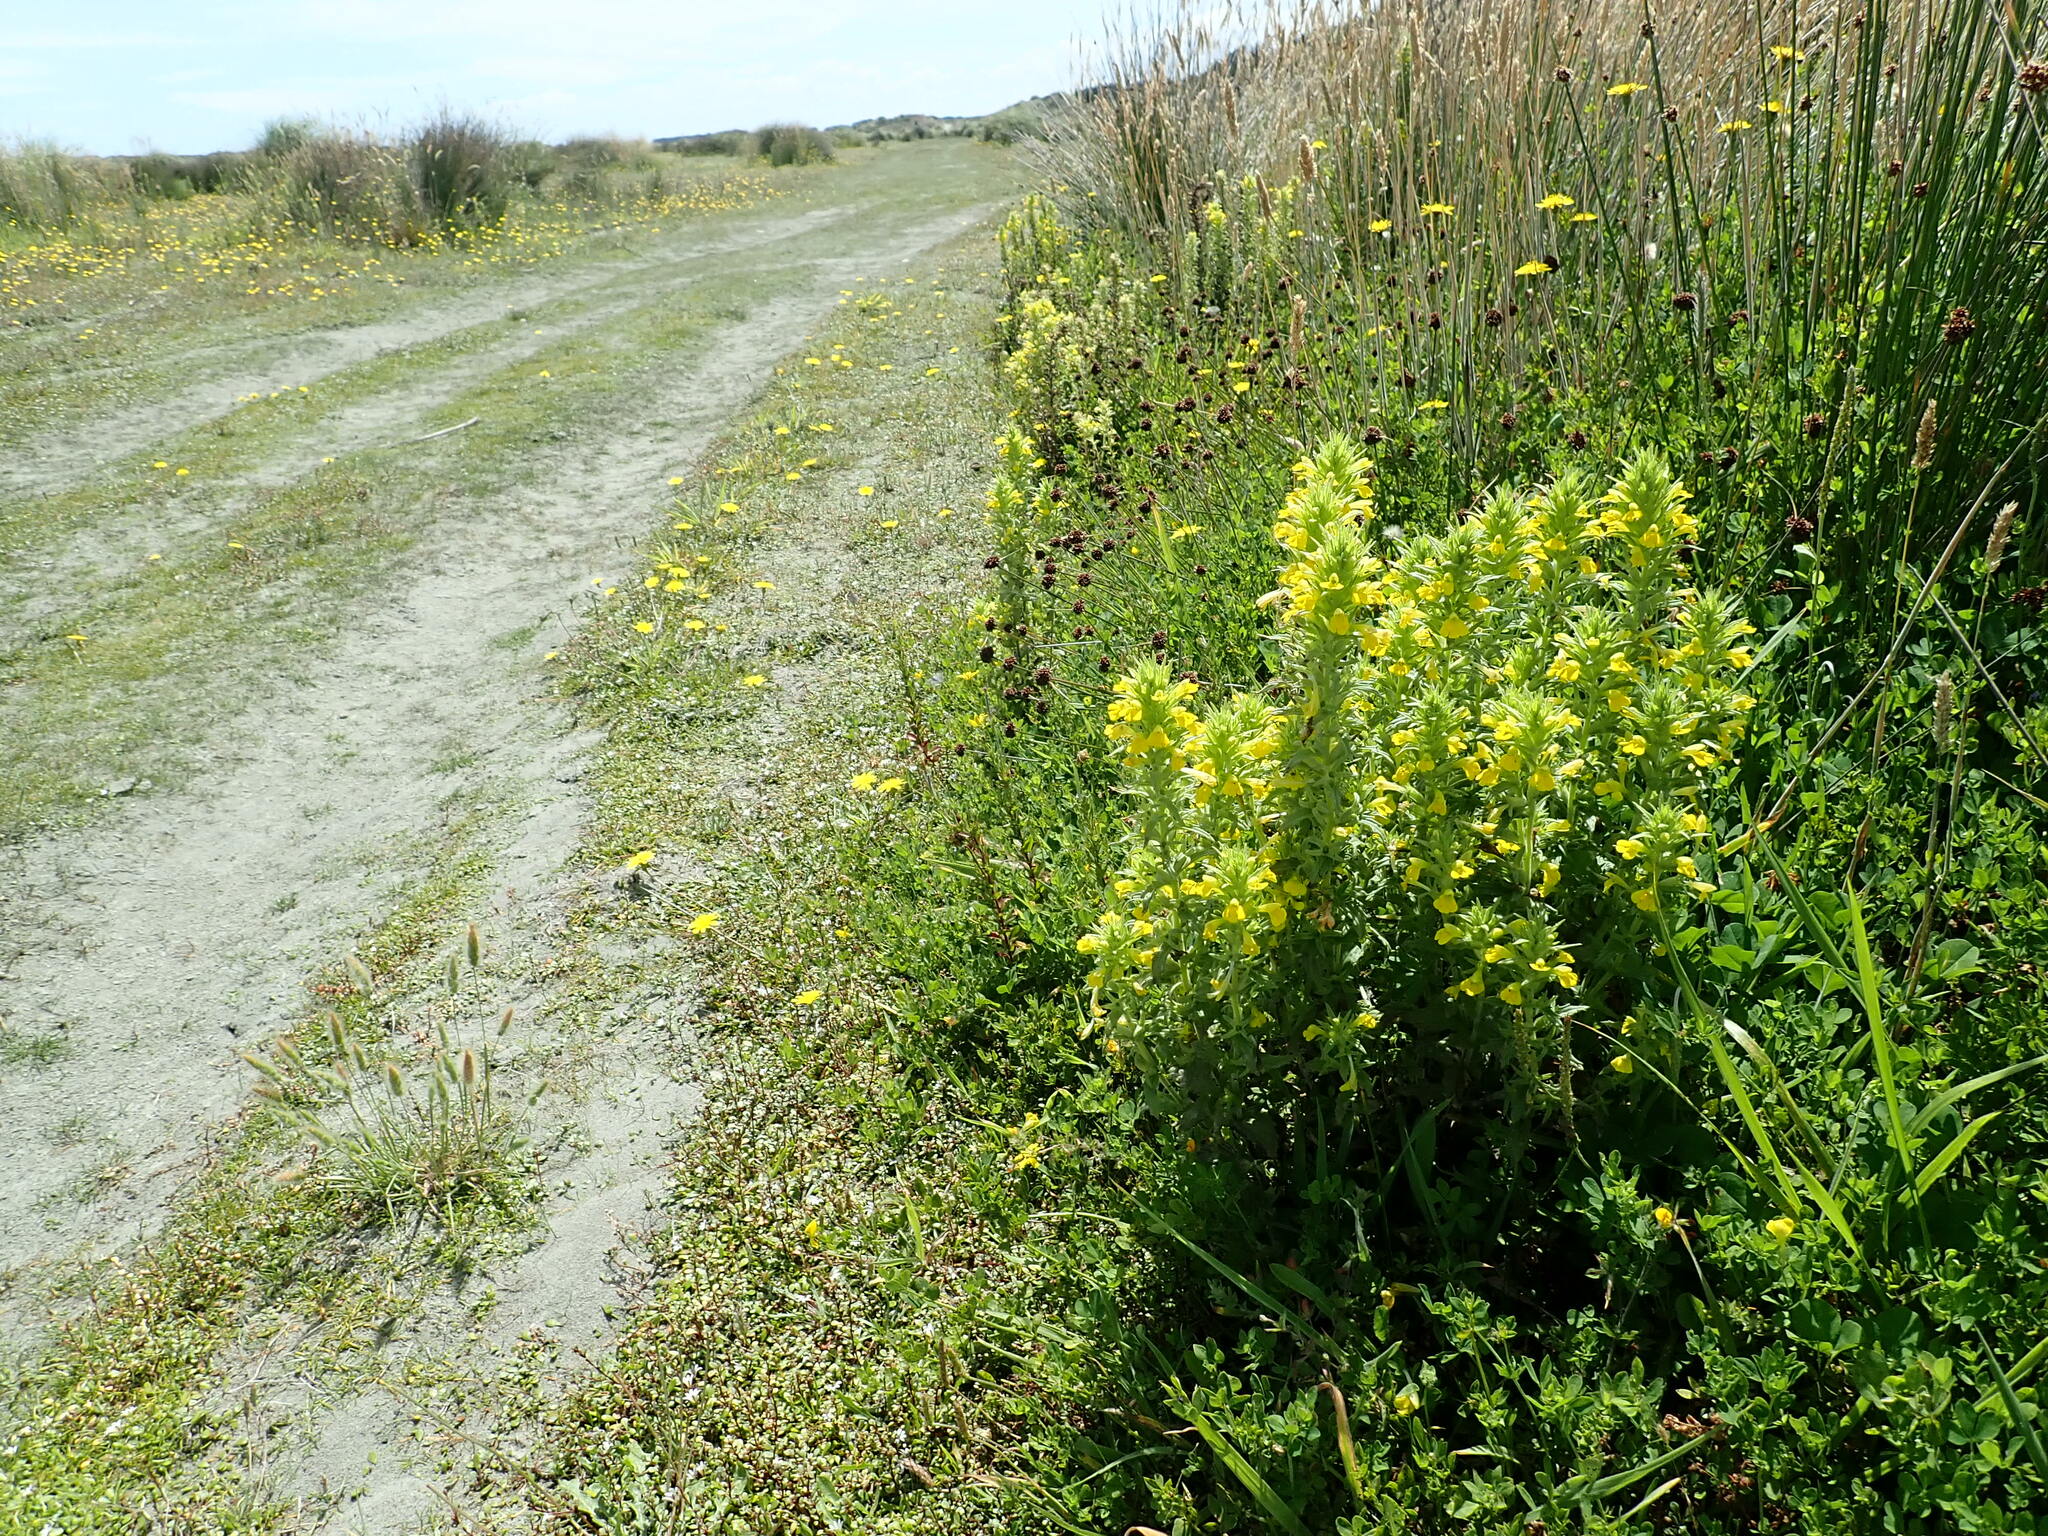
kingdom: Plantae
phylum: Tracheophyta
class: Magnoliopsida
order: Lamiales
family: Orobanchaceae
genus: Bellardia
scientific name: Bellardia viscosa
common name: Sticky parentucellia
